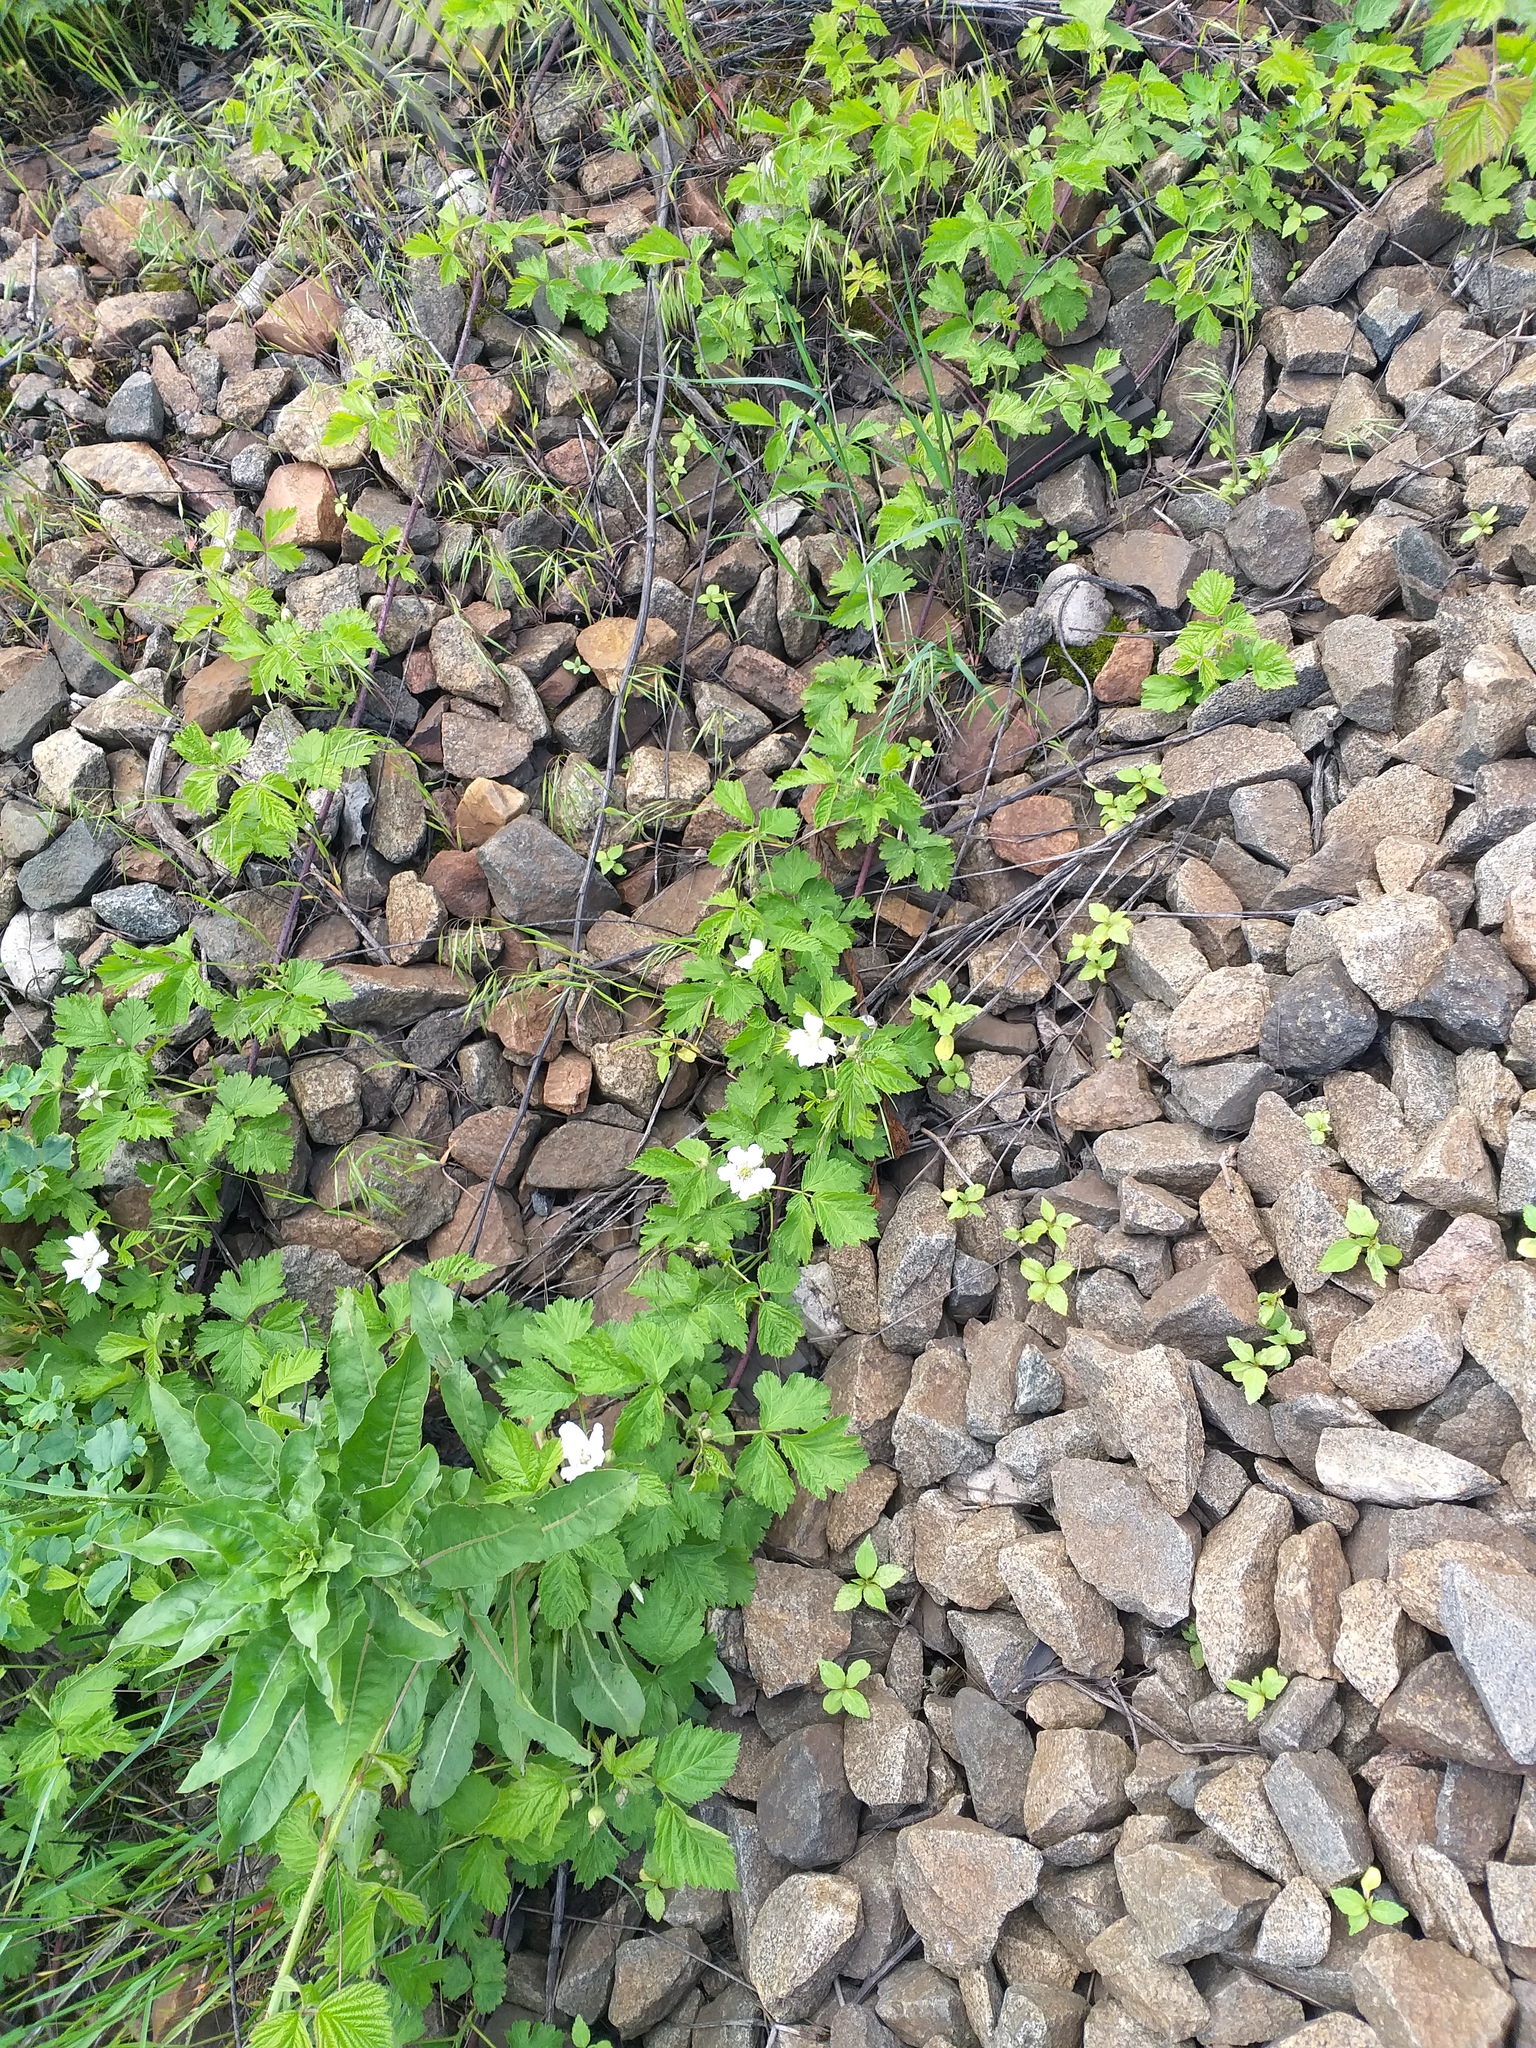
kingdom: Plantae
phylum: Tracheophyta
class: Magnoliopsida
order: Rosales
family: Rosaceae
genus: Rubus
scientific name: Rubus caesius
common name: Dewberry
